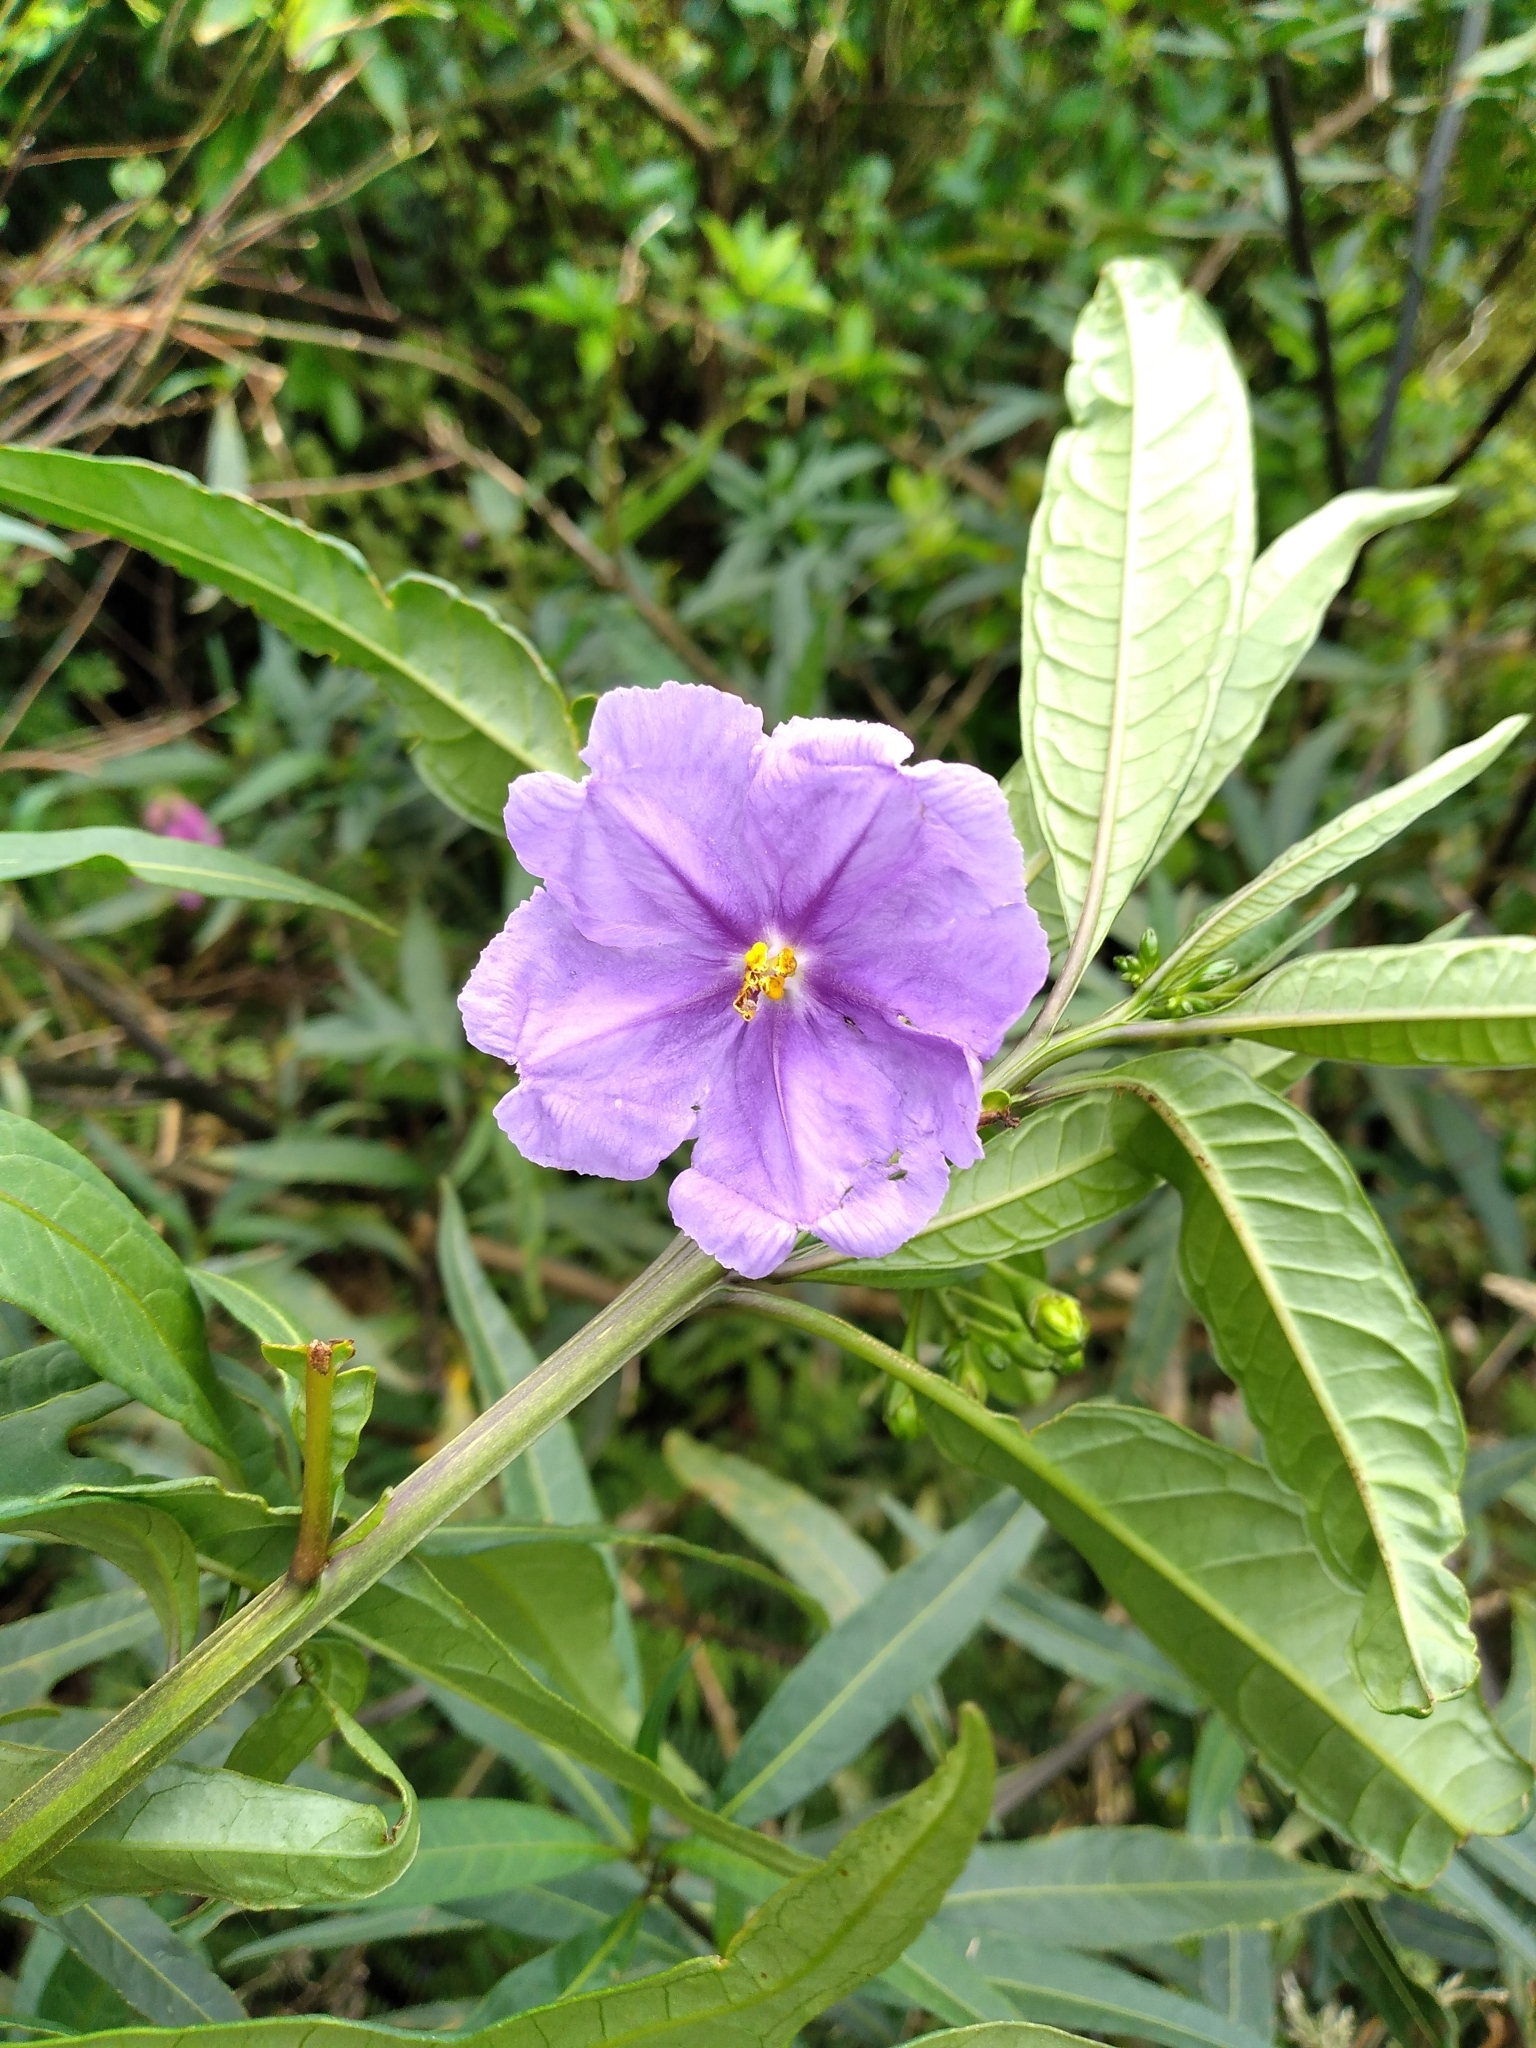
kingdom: Plantae
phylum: Tracheophyta
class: Magnoliopsida
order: Solanales
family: Solanaceae
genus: Solanum
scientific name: Solanum laciniatum
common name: Kangaroo-apple
